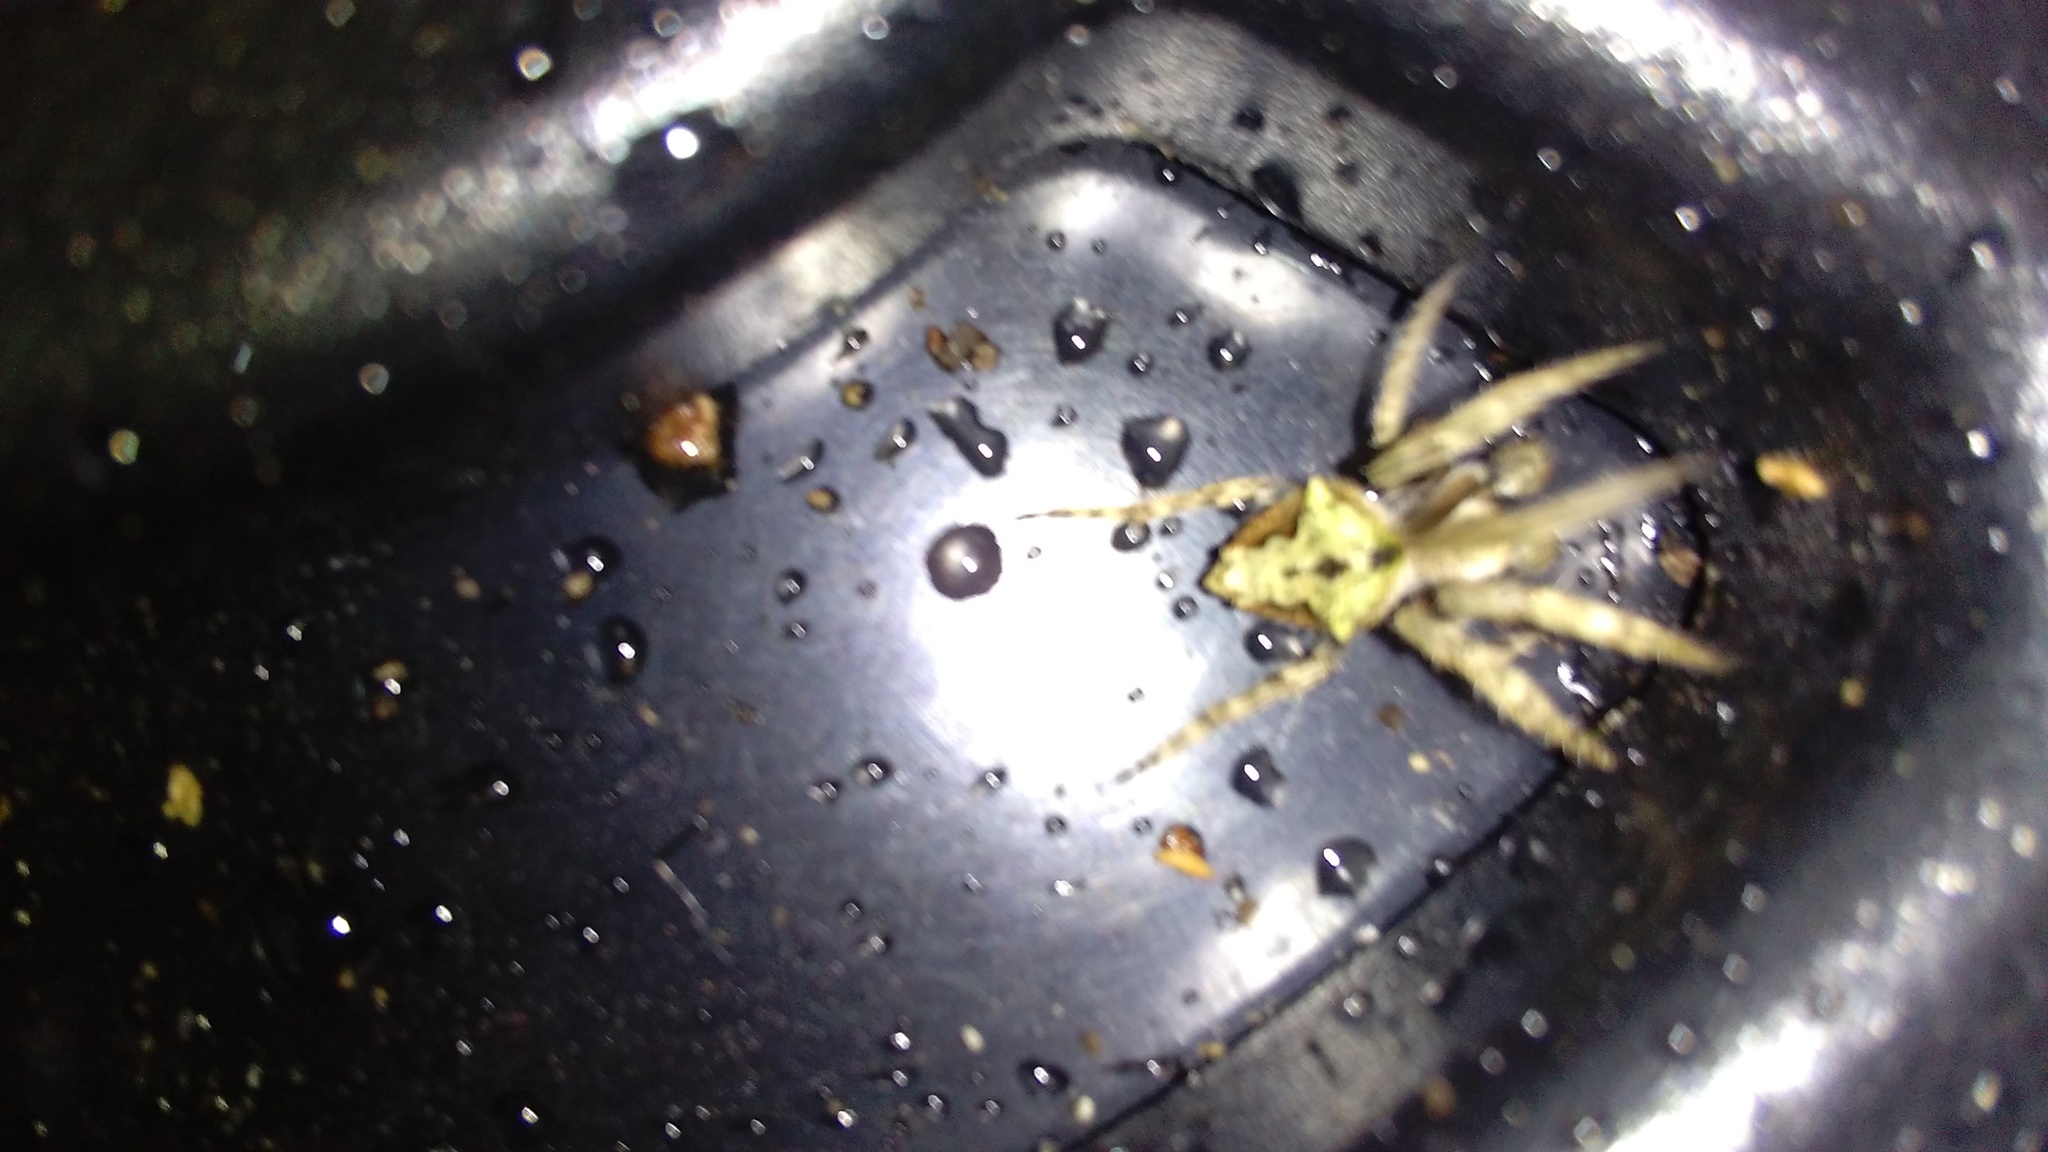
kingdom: Animalia
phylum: Arthropoda
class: Arachnida
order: Araneae
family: Araneidae
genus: Eriophora
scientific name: Eriophora pustulosa
